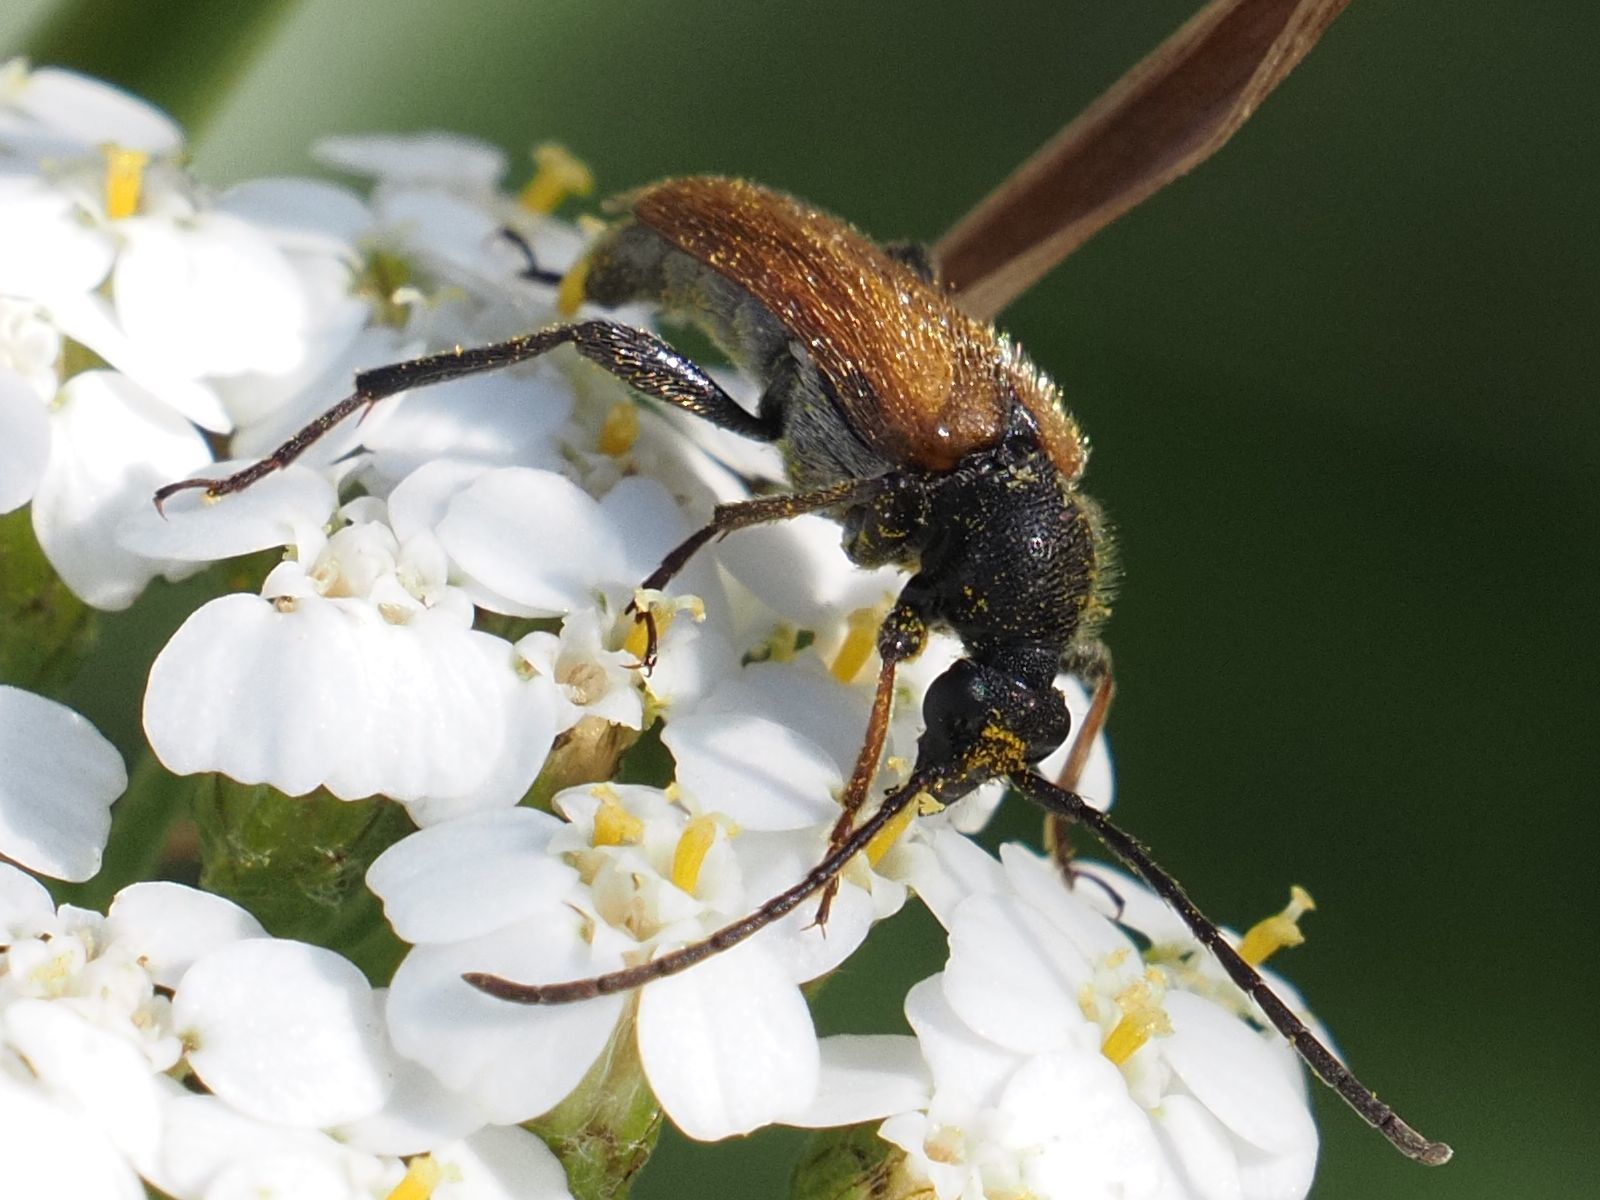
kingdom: Animalia
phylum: Arthropoda
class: Insecta
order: Coleoptera
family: Cerambycidae
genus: Pseudovadonia
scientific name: Pseudovadonia livida
